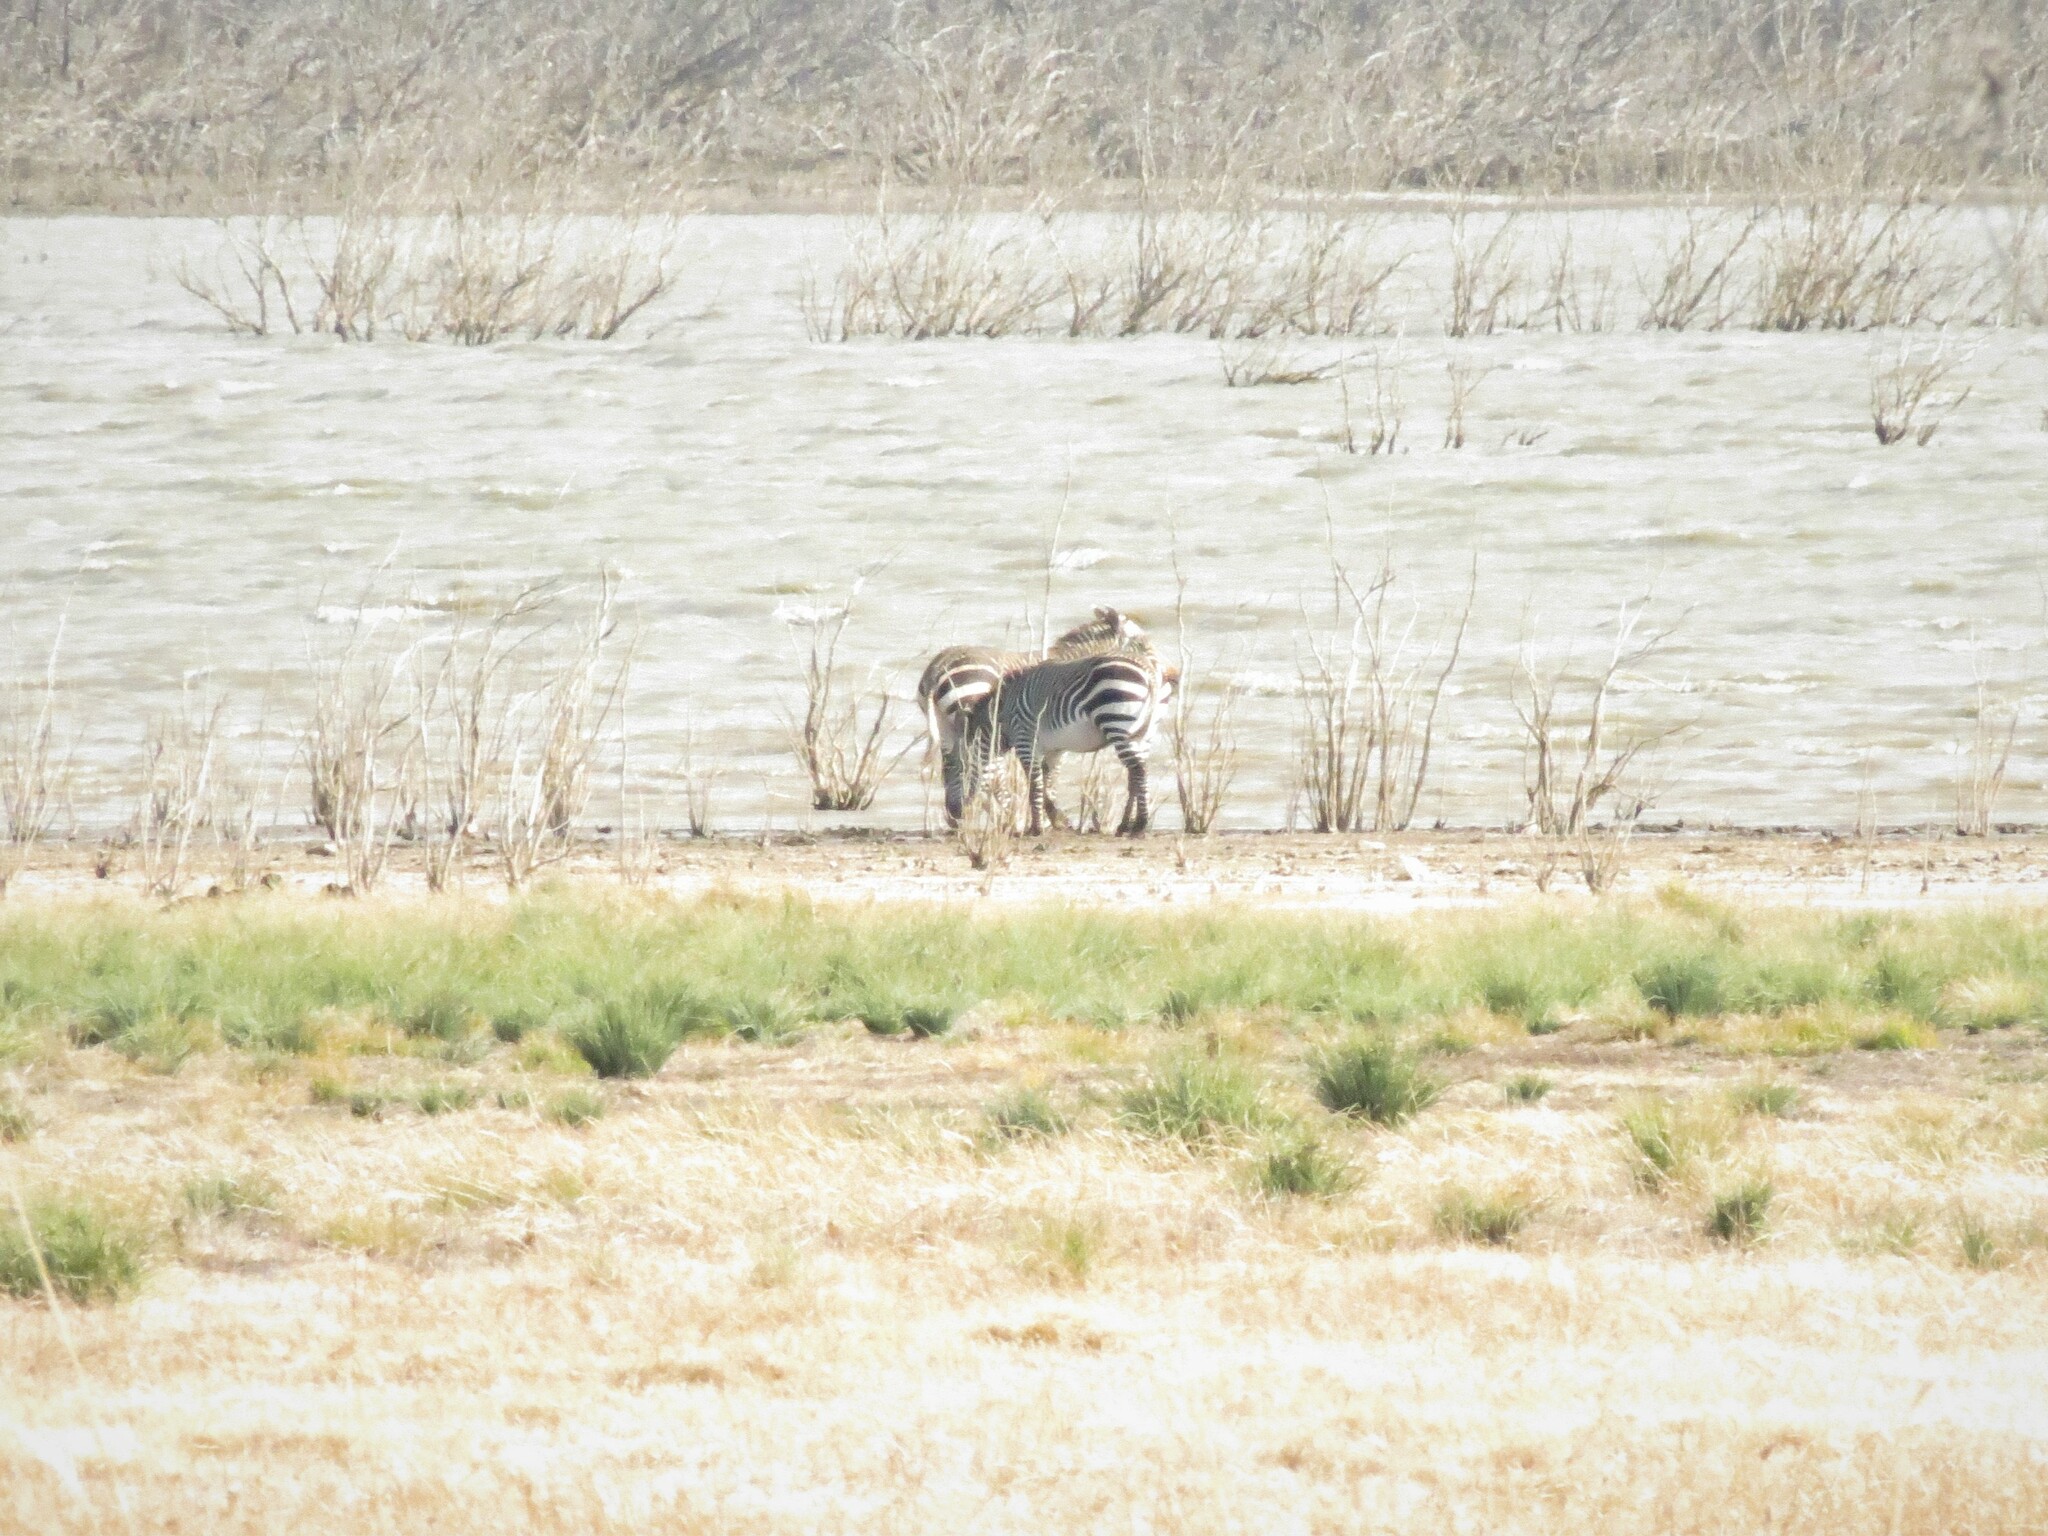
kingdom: Animalia
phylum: Chordata
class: Mammalia
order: Perissodactyla
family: Equidae
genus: Equus
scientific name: Equus zebra
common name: Mountain zebra
